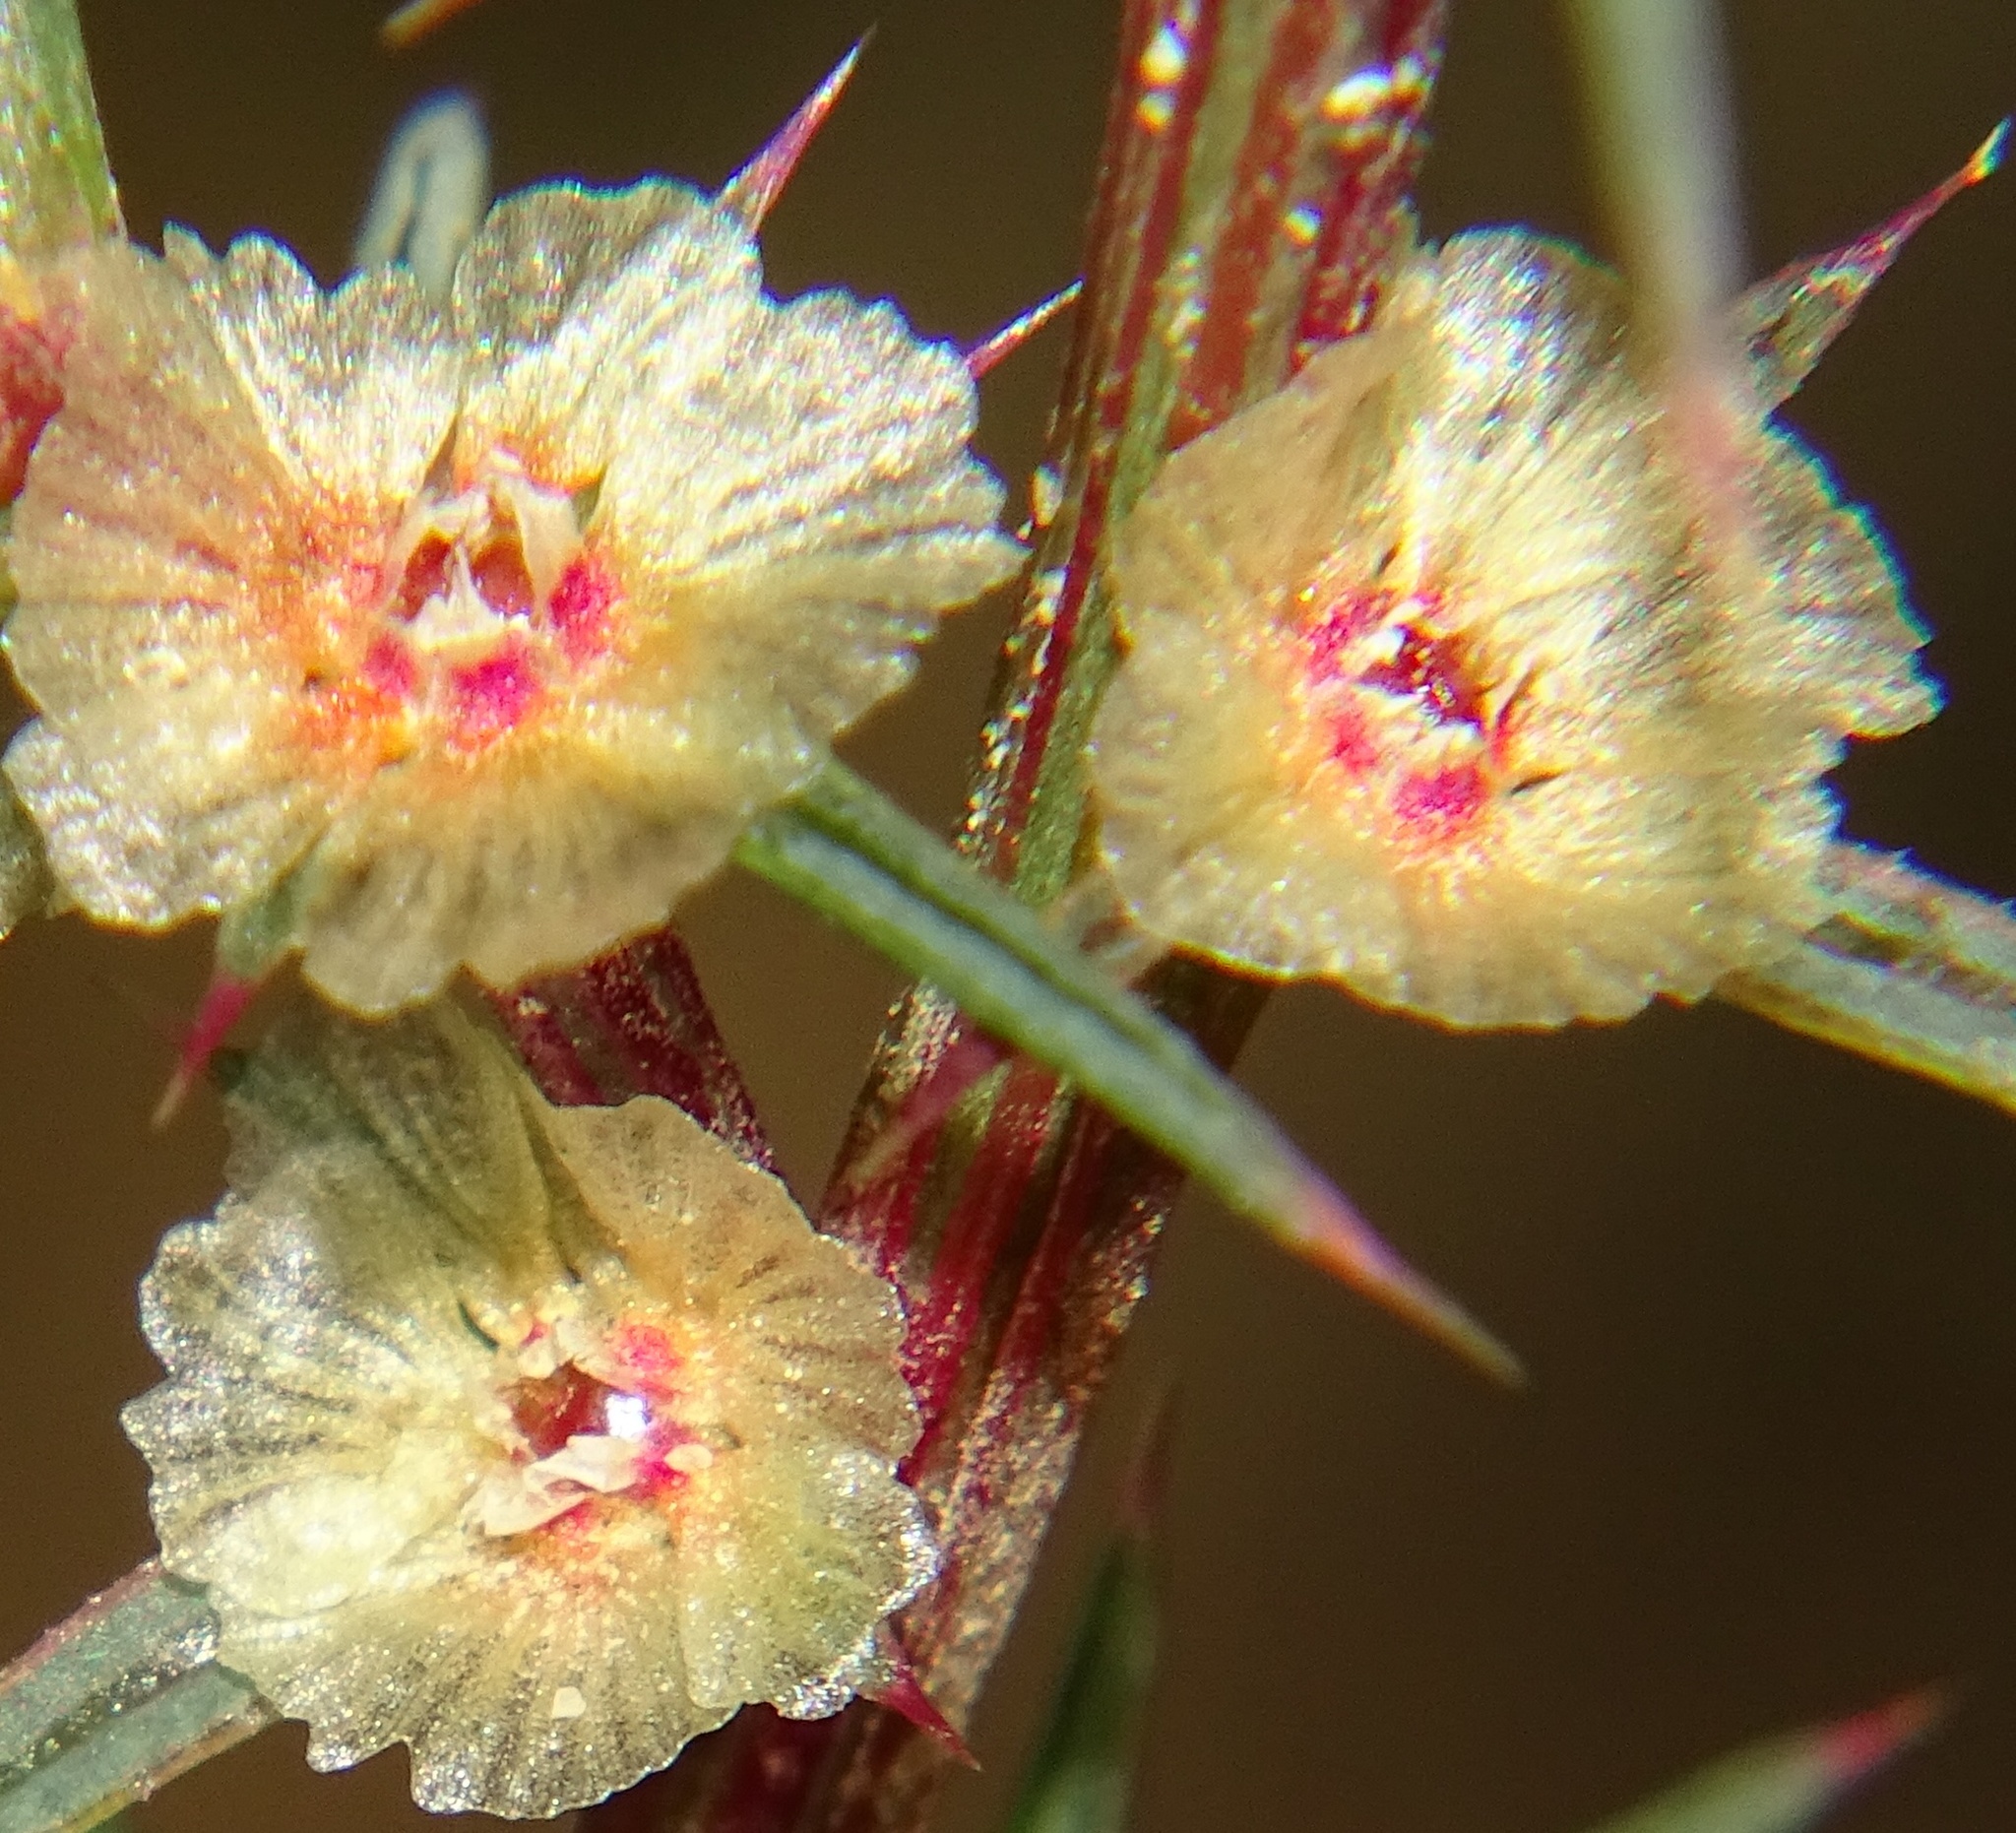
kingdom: Plantae
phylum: Tracheophyta
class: Magnoliopsida
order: Caryophyllales
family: Amaranthaceae
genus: Salsola
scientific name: Salsola australis
